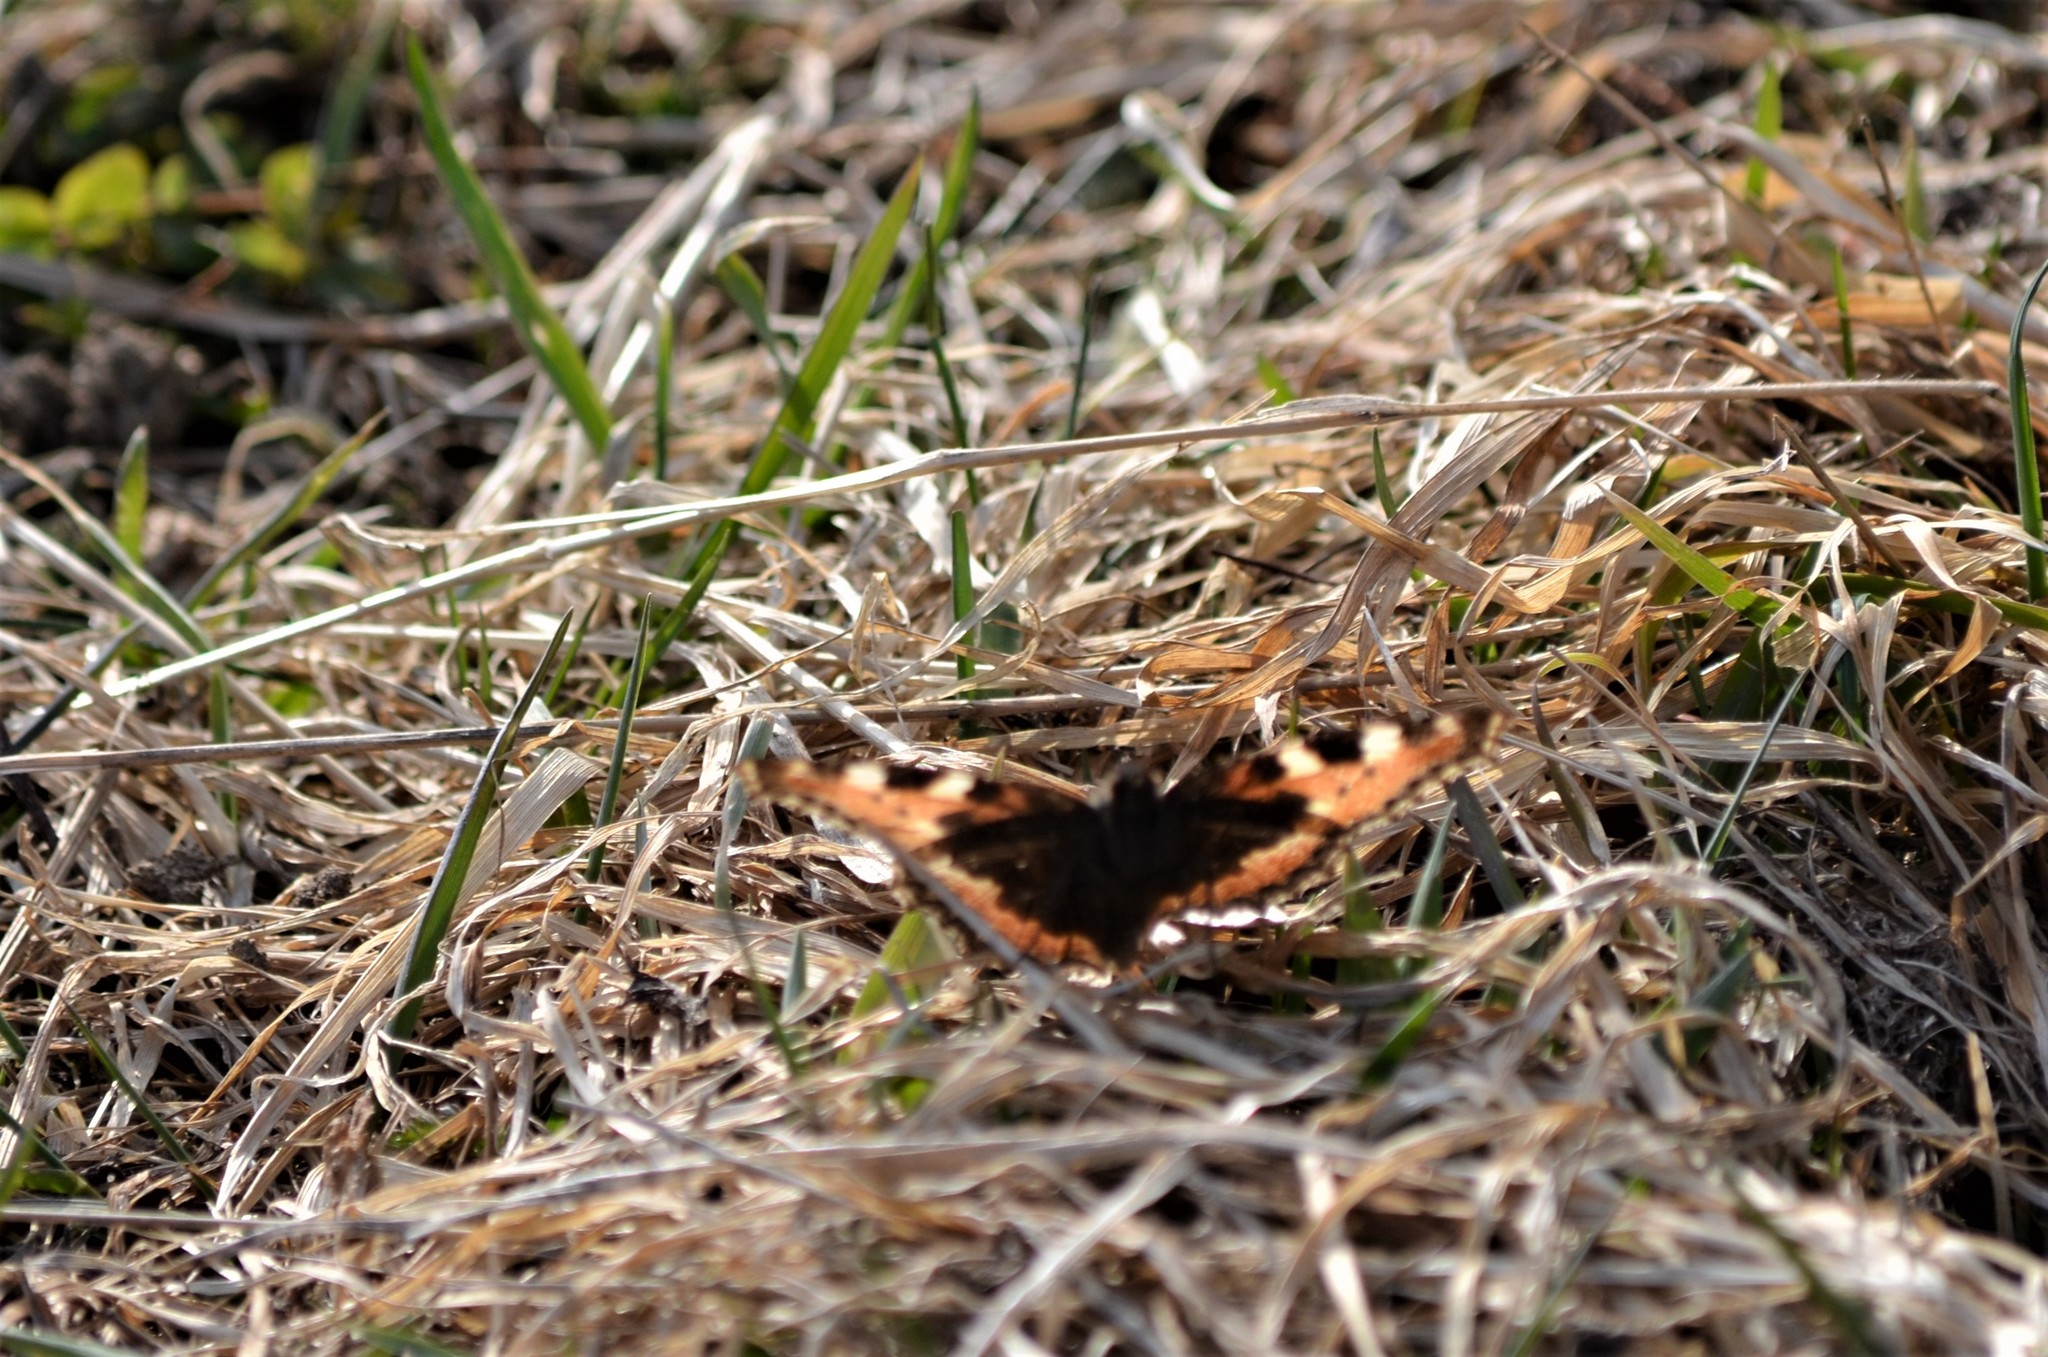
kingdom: Animalia
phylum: Arthropoda
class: Insecta
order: Lepidoptera
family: Nymphalidae
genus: Aglais
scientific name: Aglais urticae
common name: Small tortoiseshell
